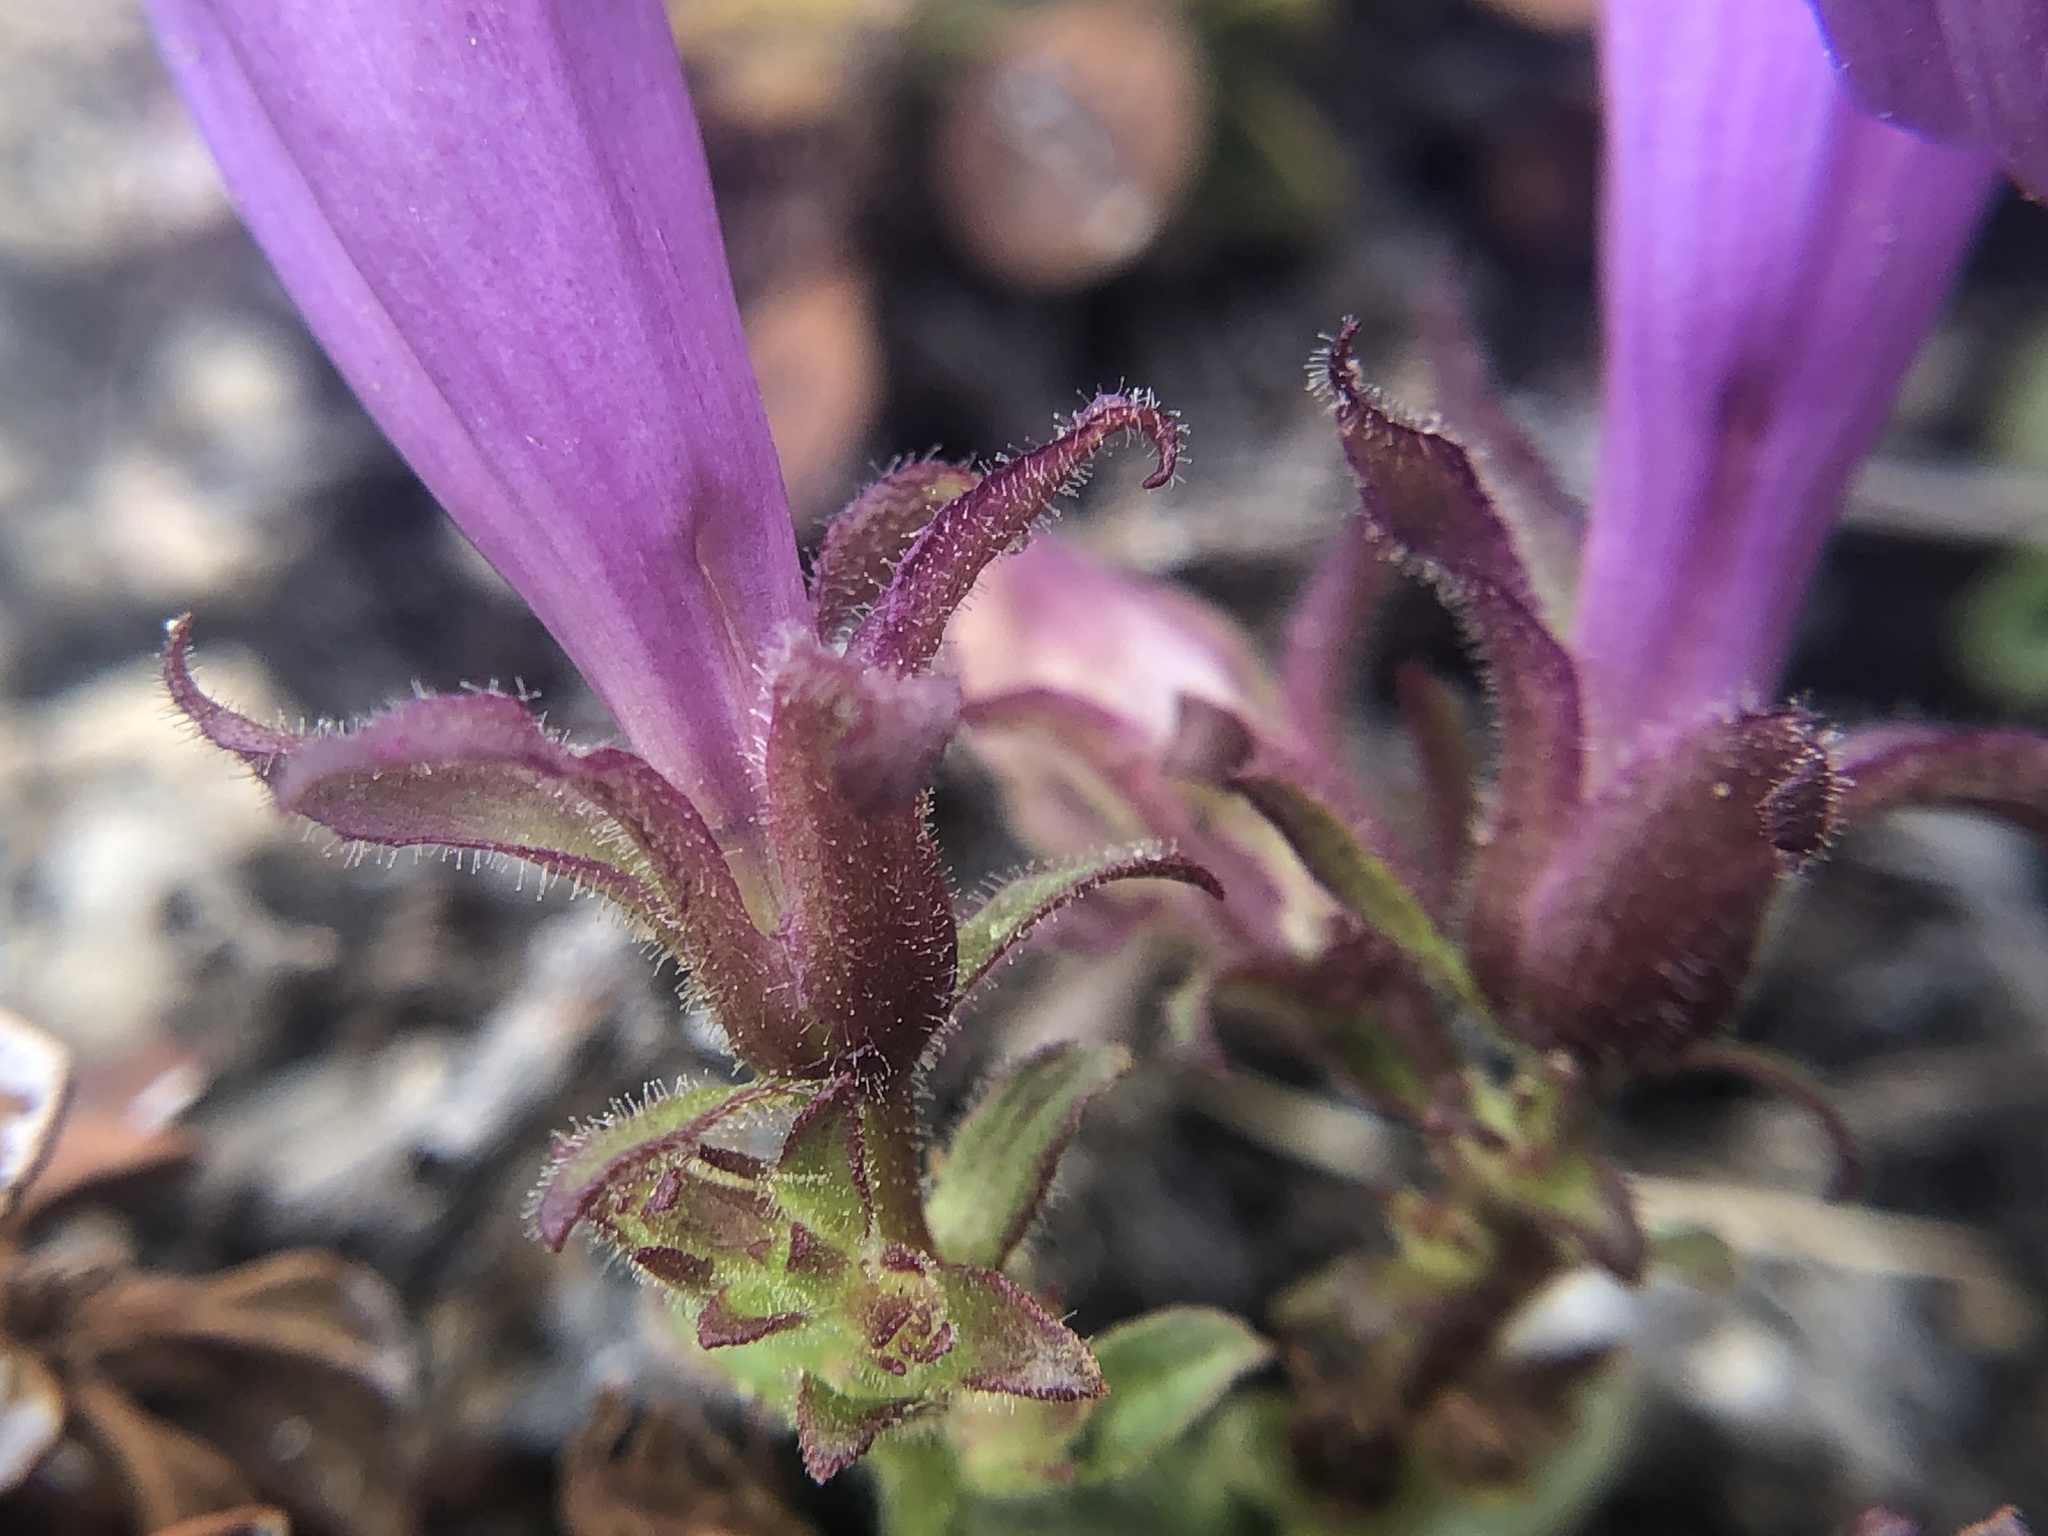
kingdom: Plantae
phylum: Tracheophyta
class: Magnoliopsida
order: Lamiales
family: Plantaginaceae
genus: Penstemon
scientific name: Penstemon davidsonii
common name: Davidson's penstemon
